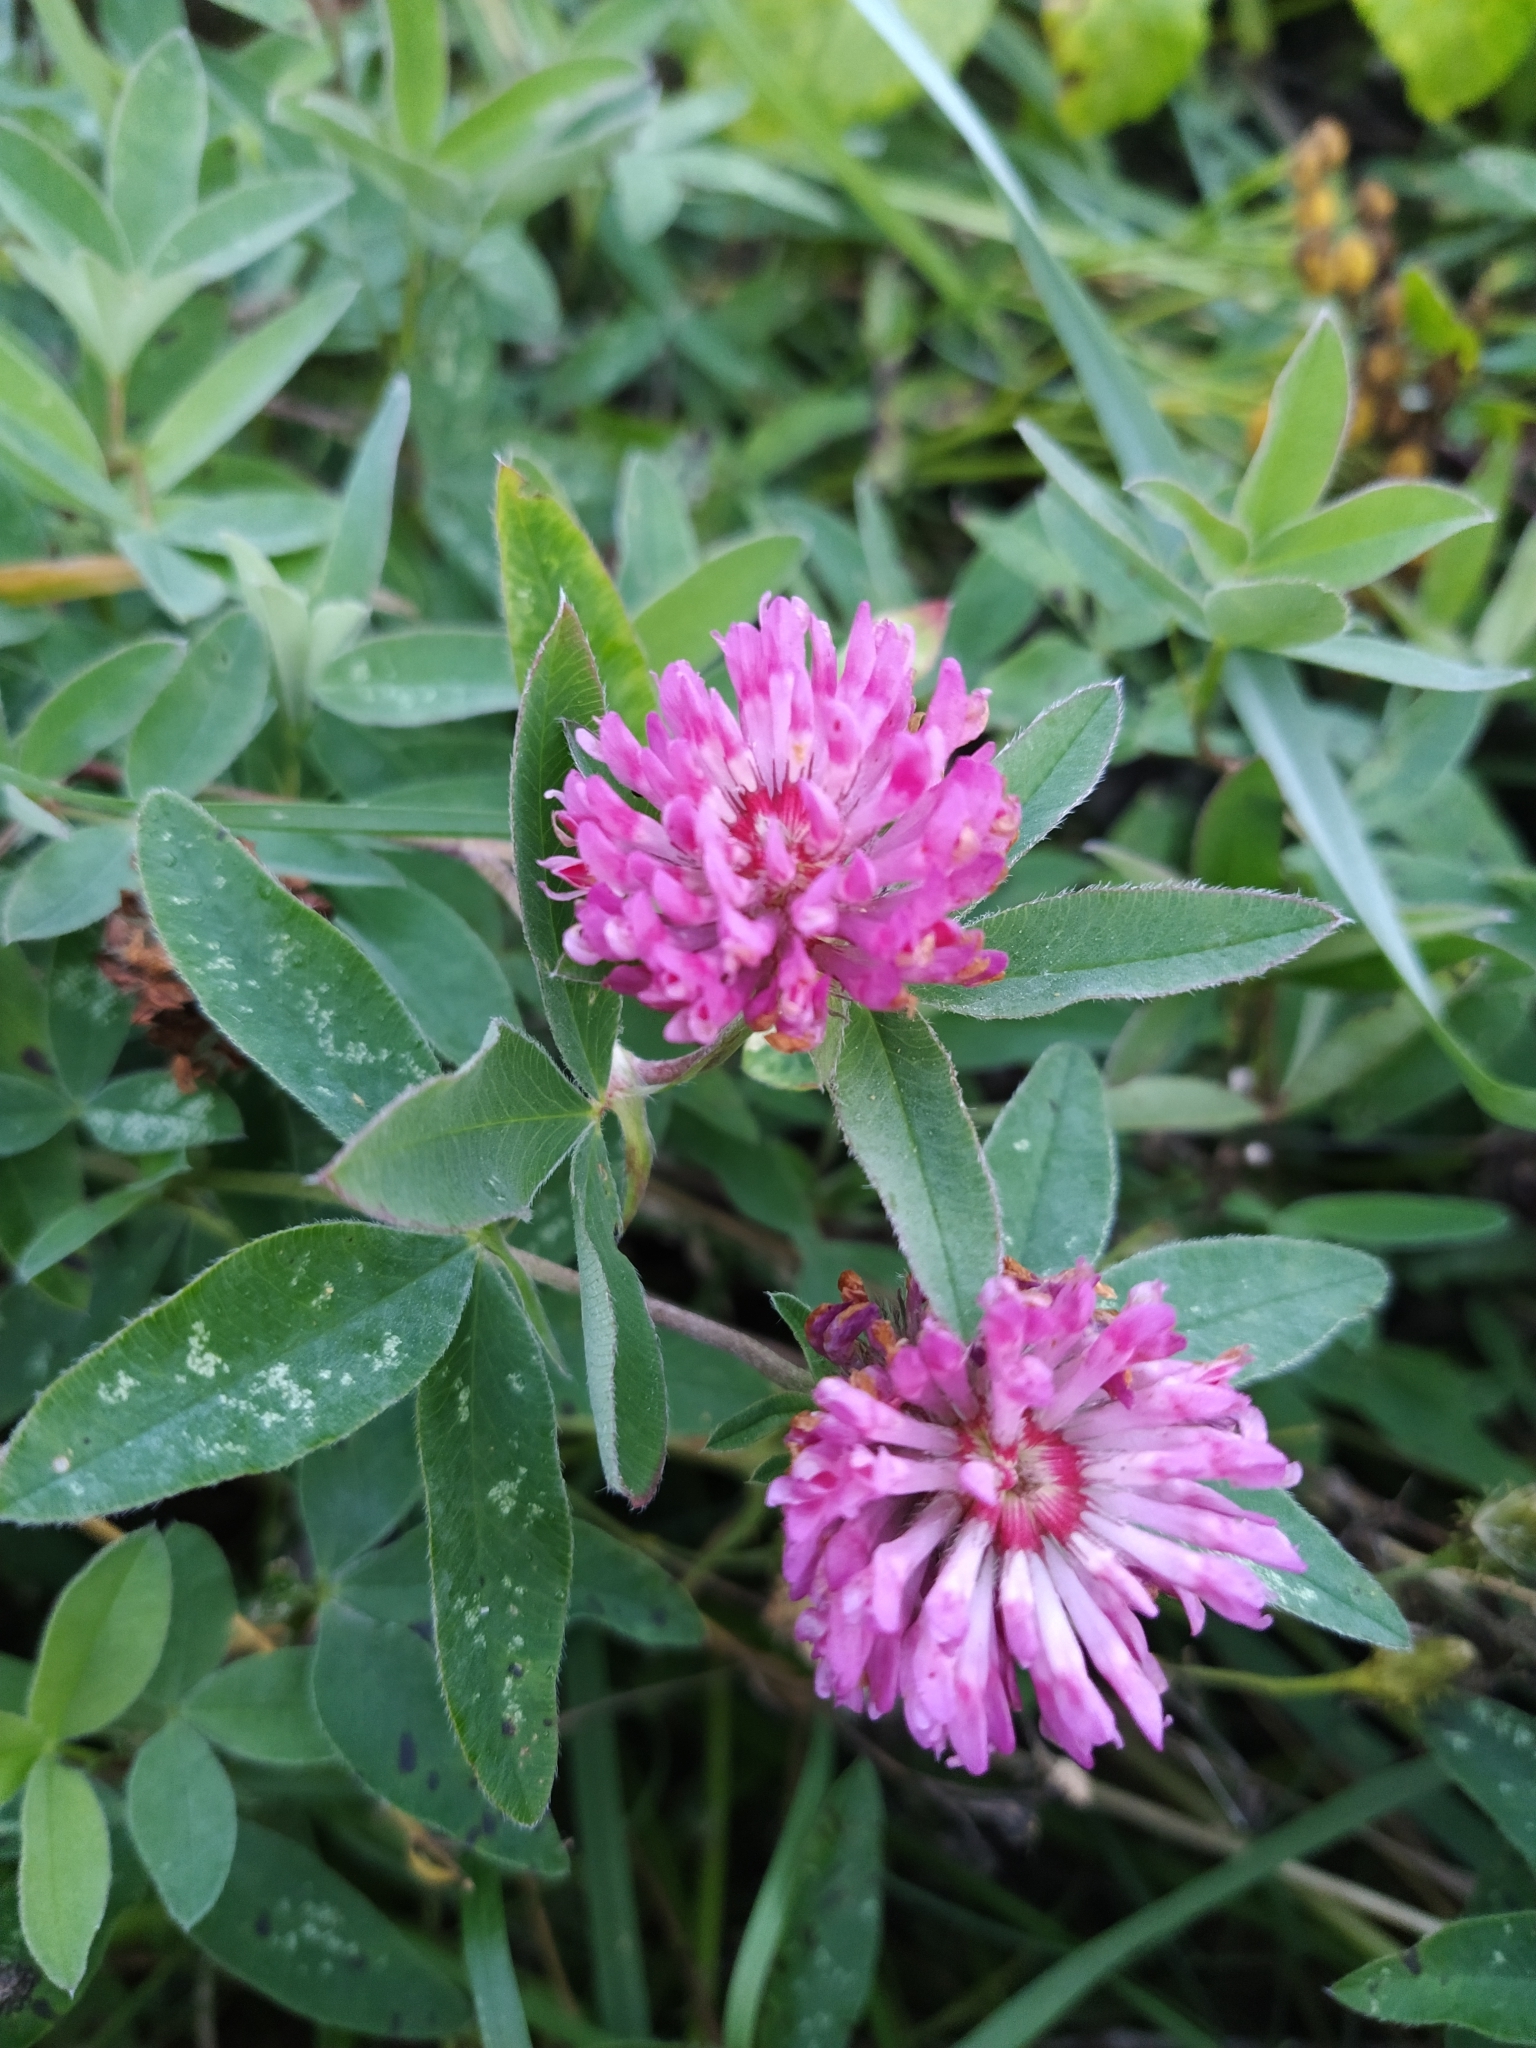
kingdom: Plantae
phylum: Tracheophyta
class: Magnoliopsida
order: Fabales
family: Fabaceae
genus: Trifolium
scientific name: Trifolium medium
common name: Zigzag clover
